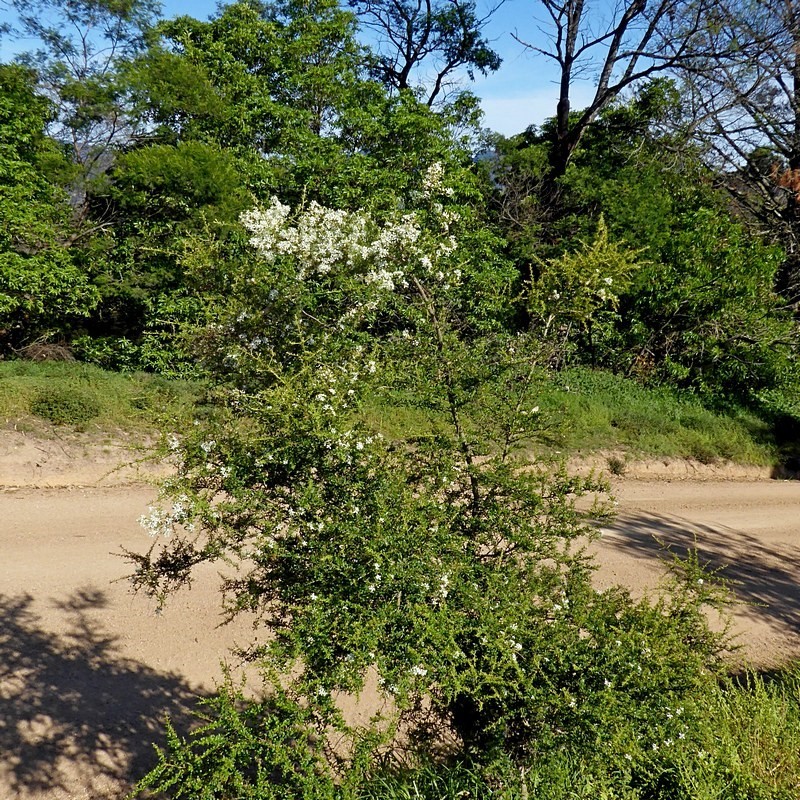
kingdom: Plantae
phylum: Tracheophyta
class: Magnoliopsida
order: Apiales
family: Pittosporaceae
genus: Bursaria
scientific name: Bursaria spinosa
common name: Australian blackthorn
